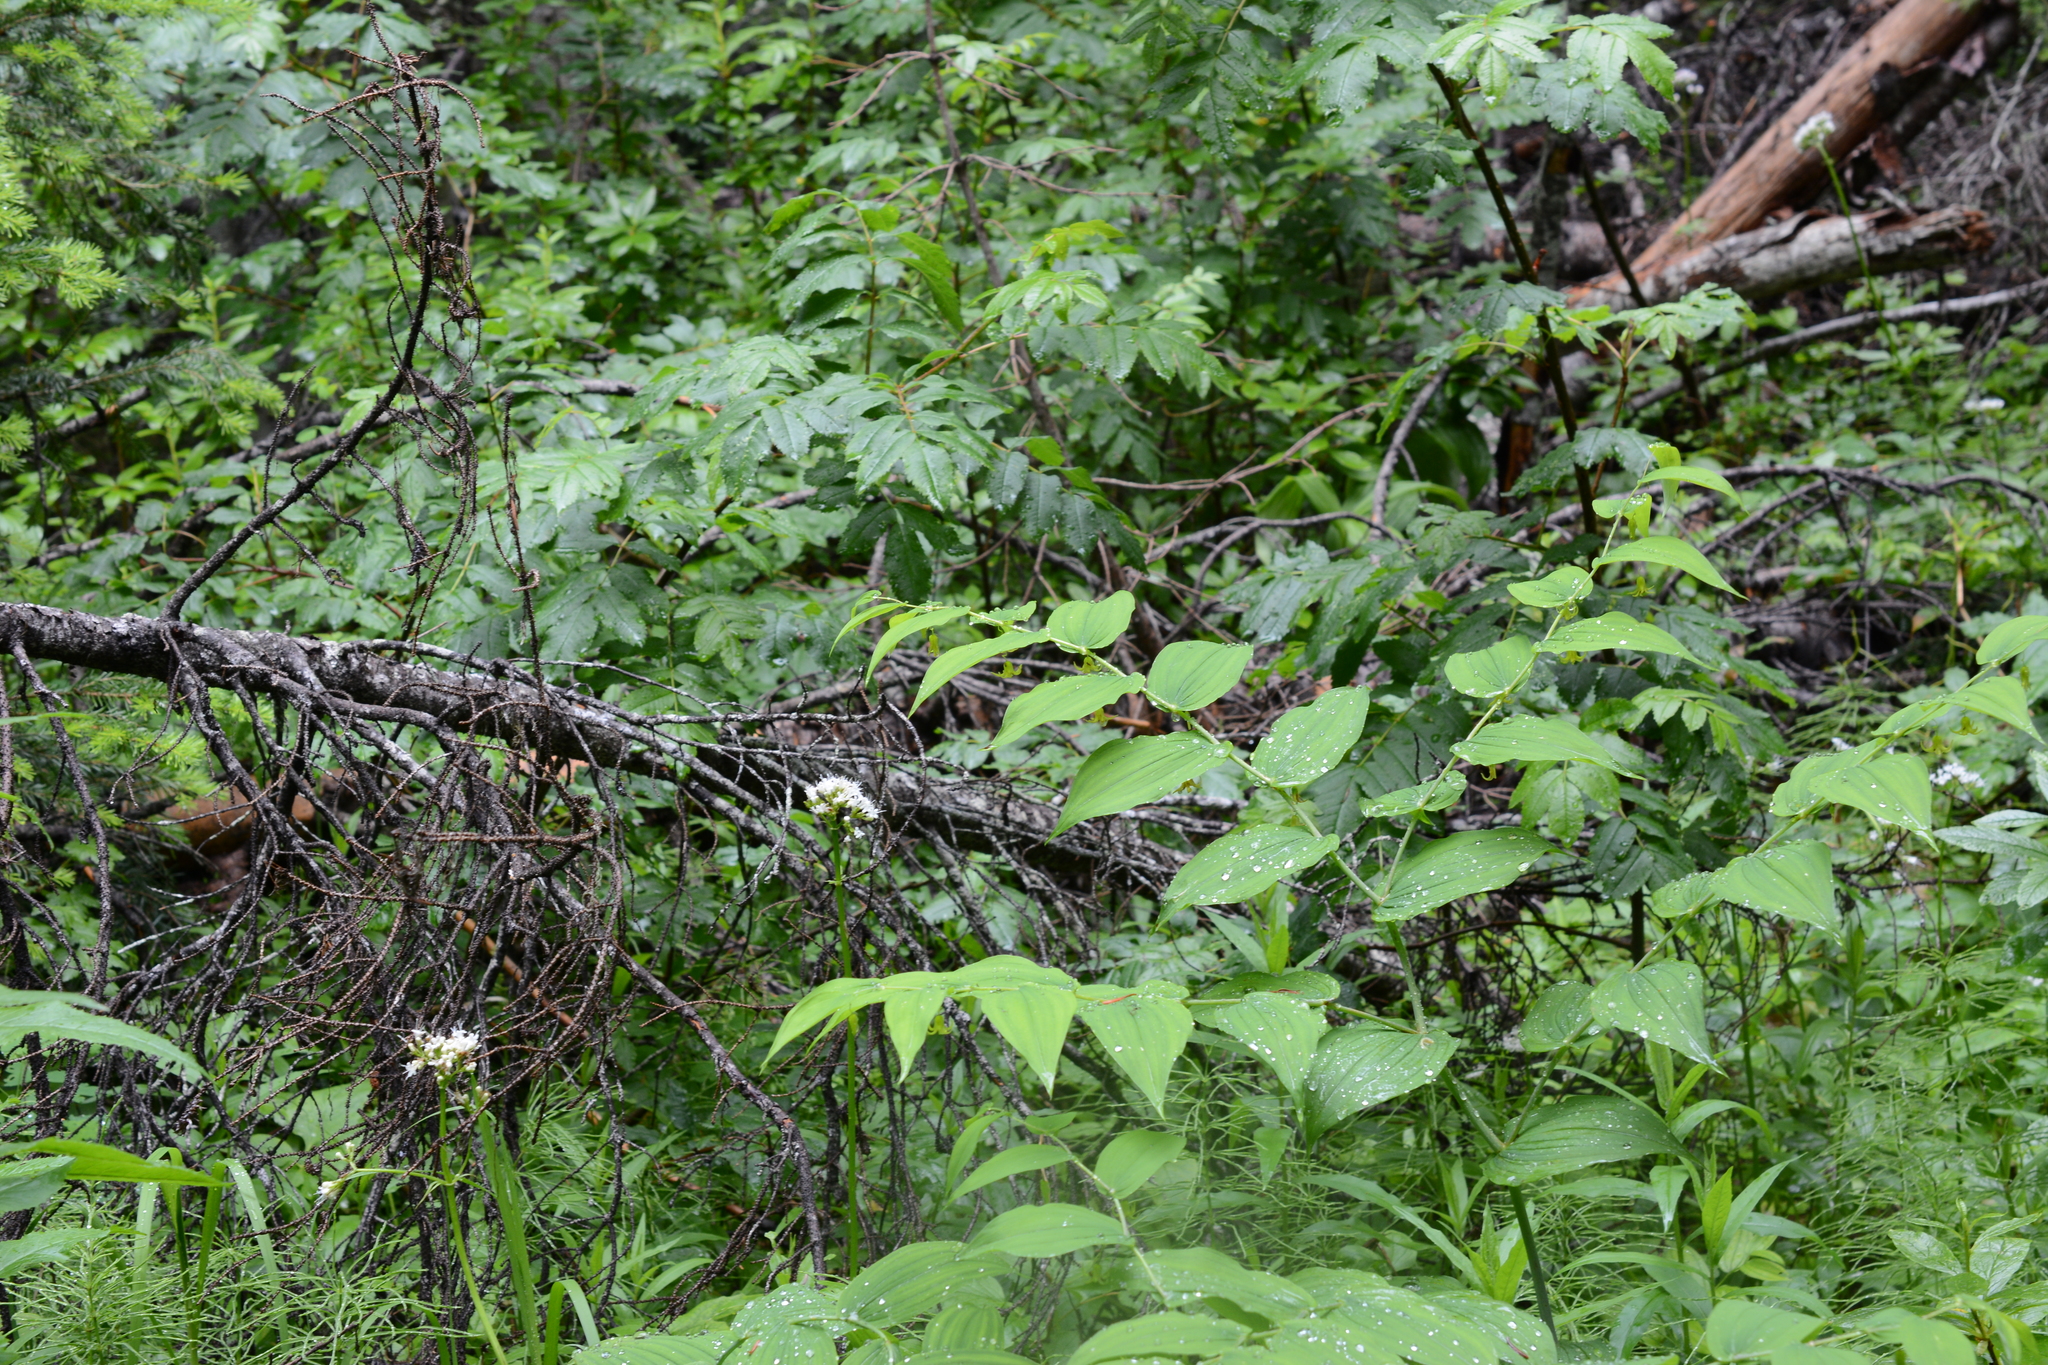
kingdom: Plantae
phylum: Tracheophyta
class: Liliopsida
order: Liliales
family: Liliaceae
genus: Streptopus
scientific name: Streptopus amplexifolius
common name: Clasp twisted stalk
